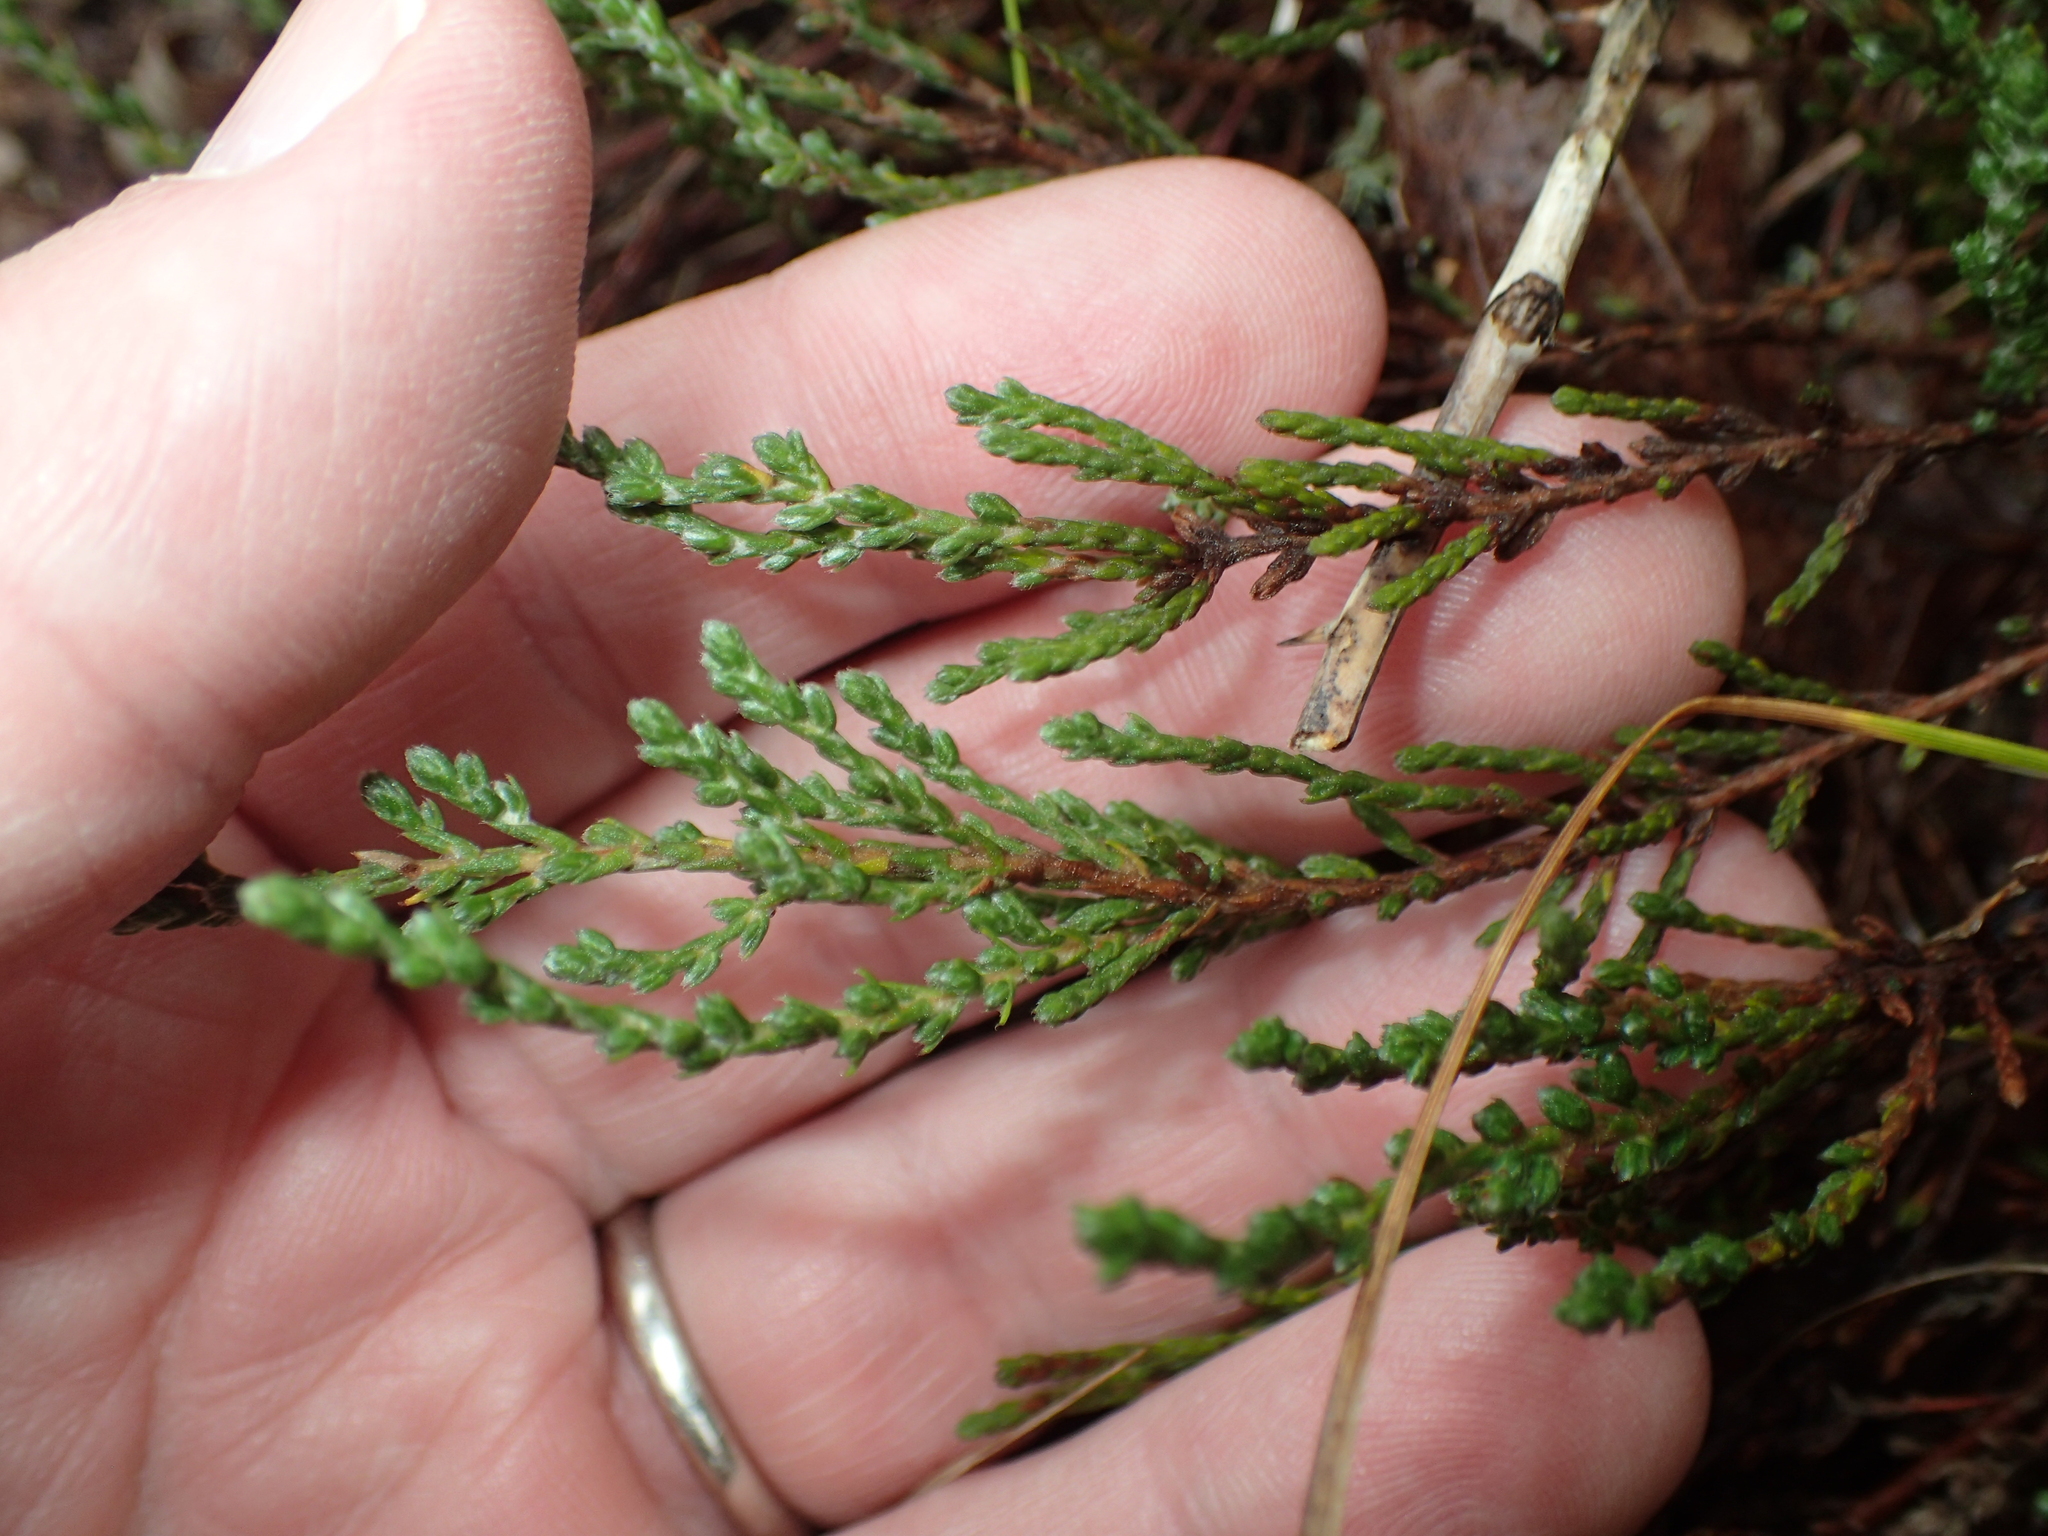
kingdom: Plantae
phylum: Tracheophyta
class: Magnoliopsida
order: Malvales
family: Cistaceae
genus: Hudsonia
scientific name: Hudsonia tomentosa
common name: Beach-heath
